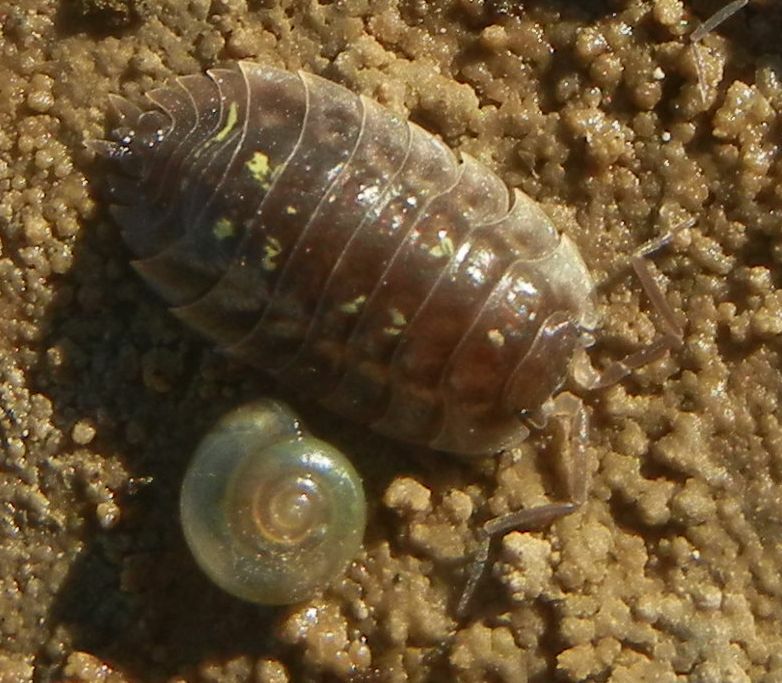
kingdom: Animalia
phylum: Arthropoda
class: Malacostraca
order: Isopoda
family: Oniscidae
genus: Oniscus
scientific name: Oniscus asellus
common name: Common shiny woodlouse
